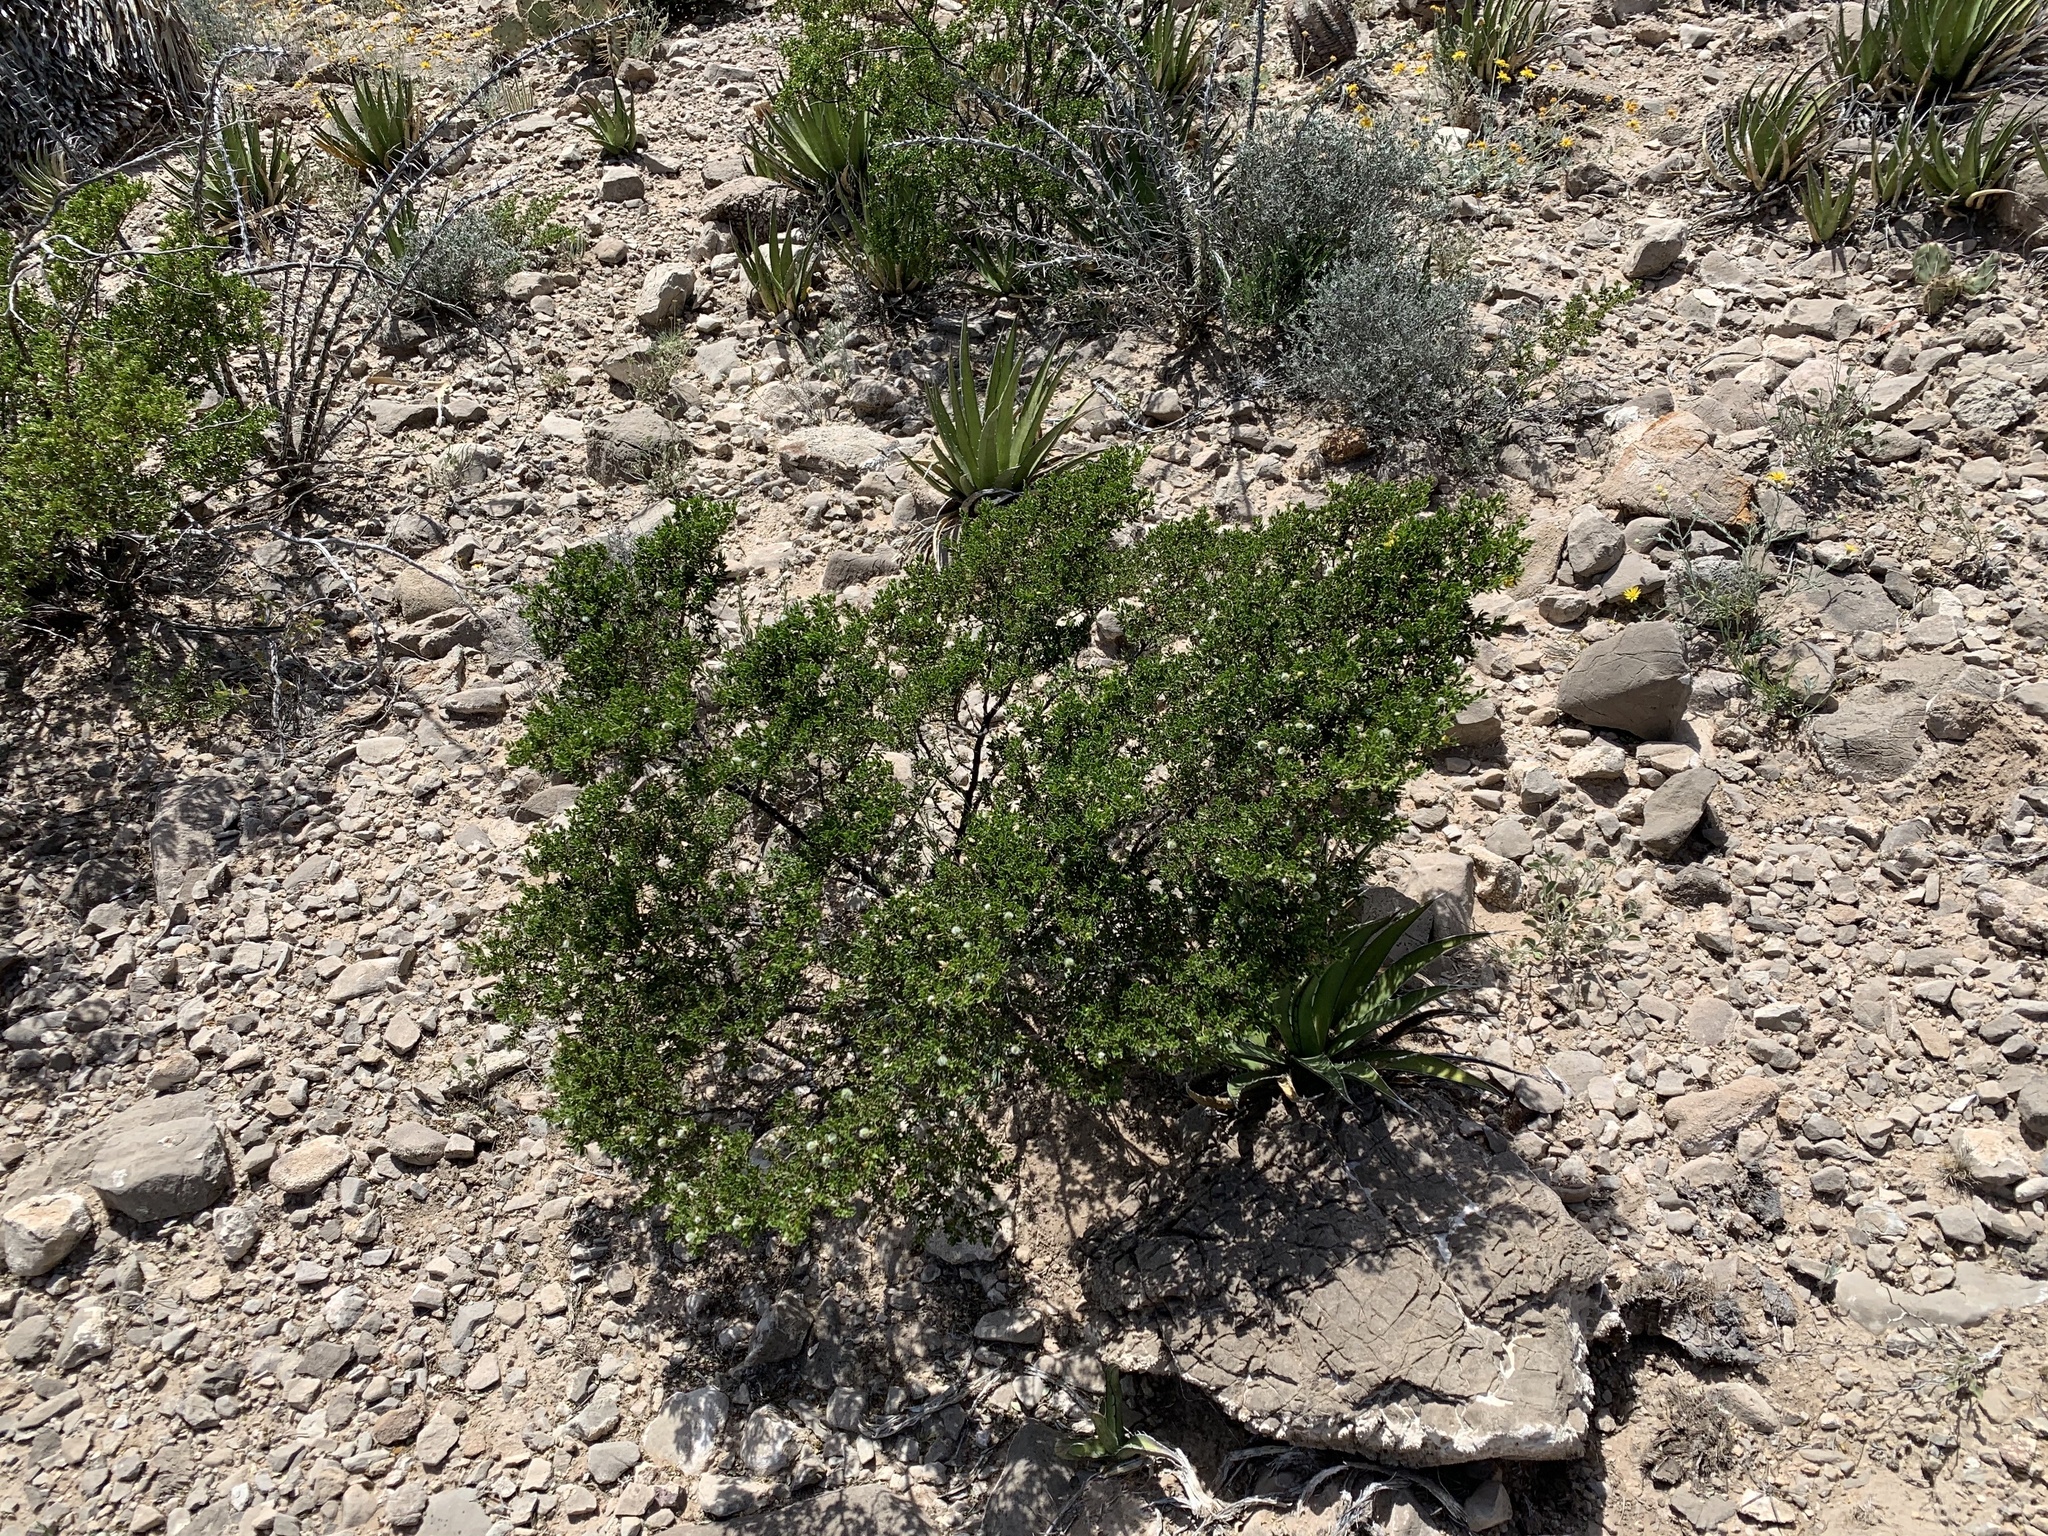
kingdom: Plantae
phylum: Tracheophyta
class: Magnoliopsida
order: Zygophyllales
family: Zygophyllaceae
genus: Larrea
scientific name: Larrea tridentata
